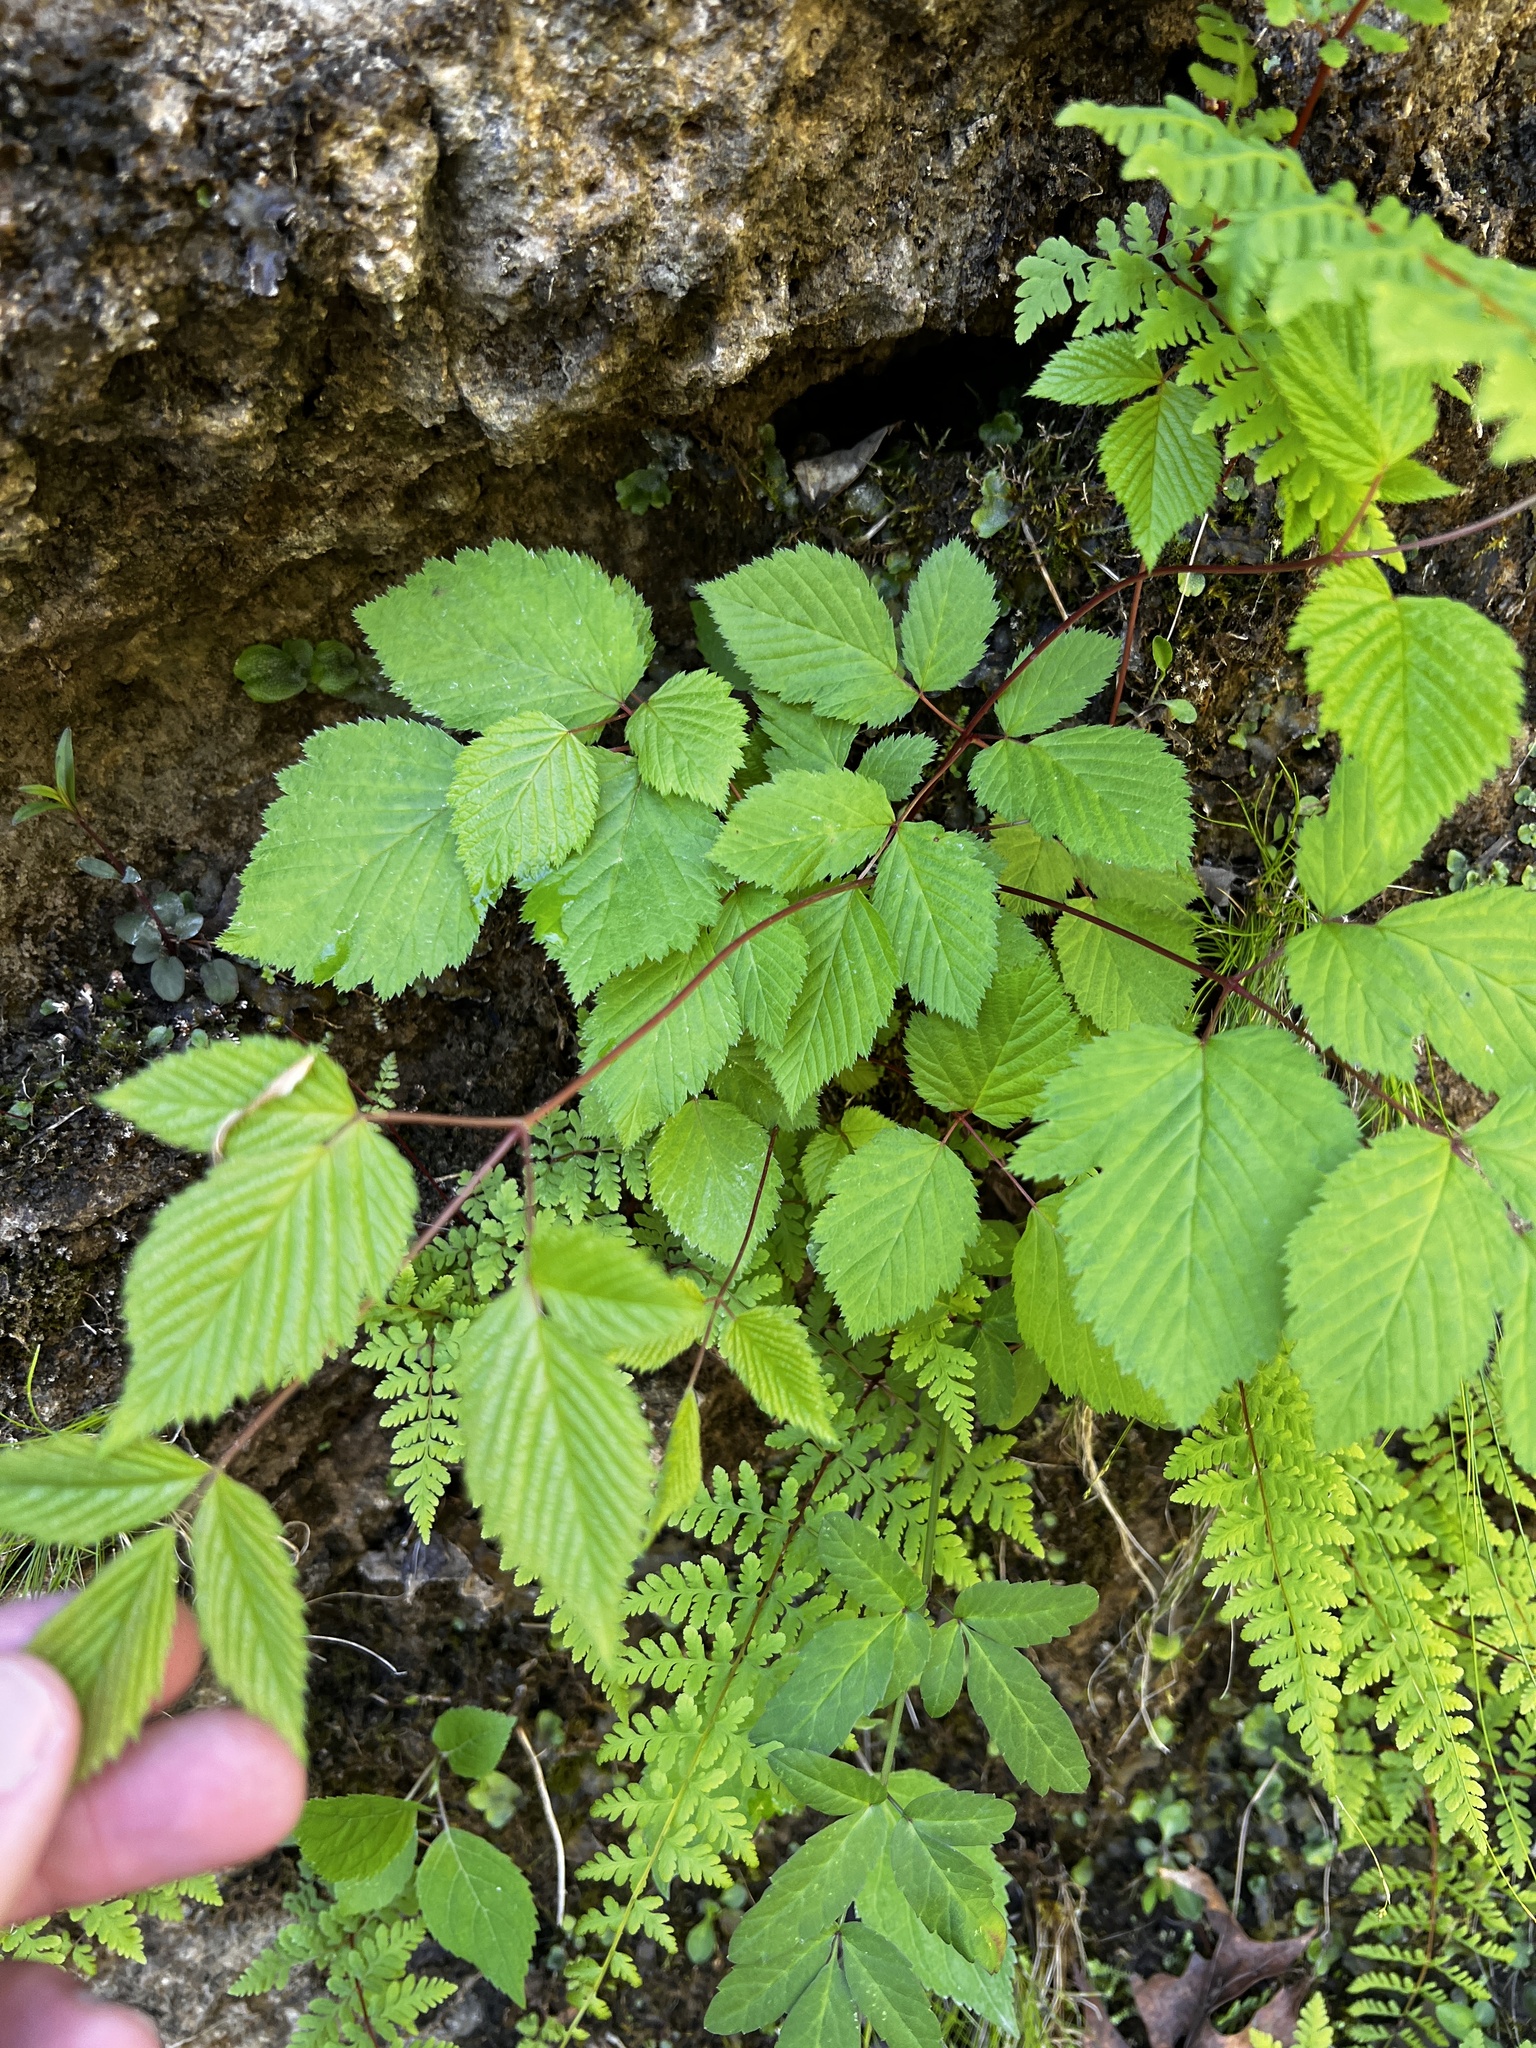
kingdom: Plantae
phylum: Tracheophyta
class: Magnoliopsida
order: Rosales
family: Rosaceae
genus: Aruncus
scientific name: Aruncus dioicus
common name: Buck's-beard
